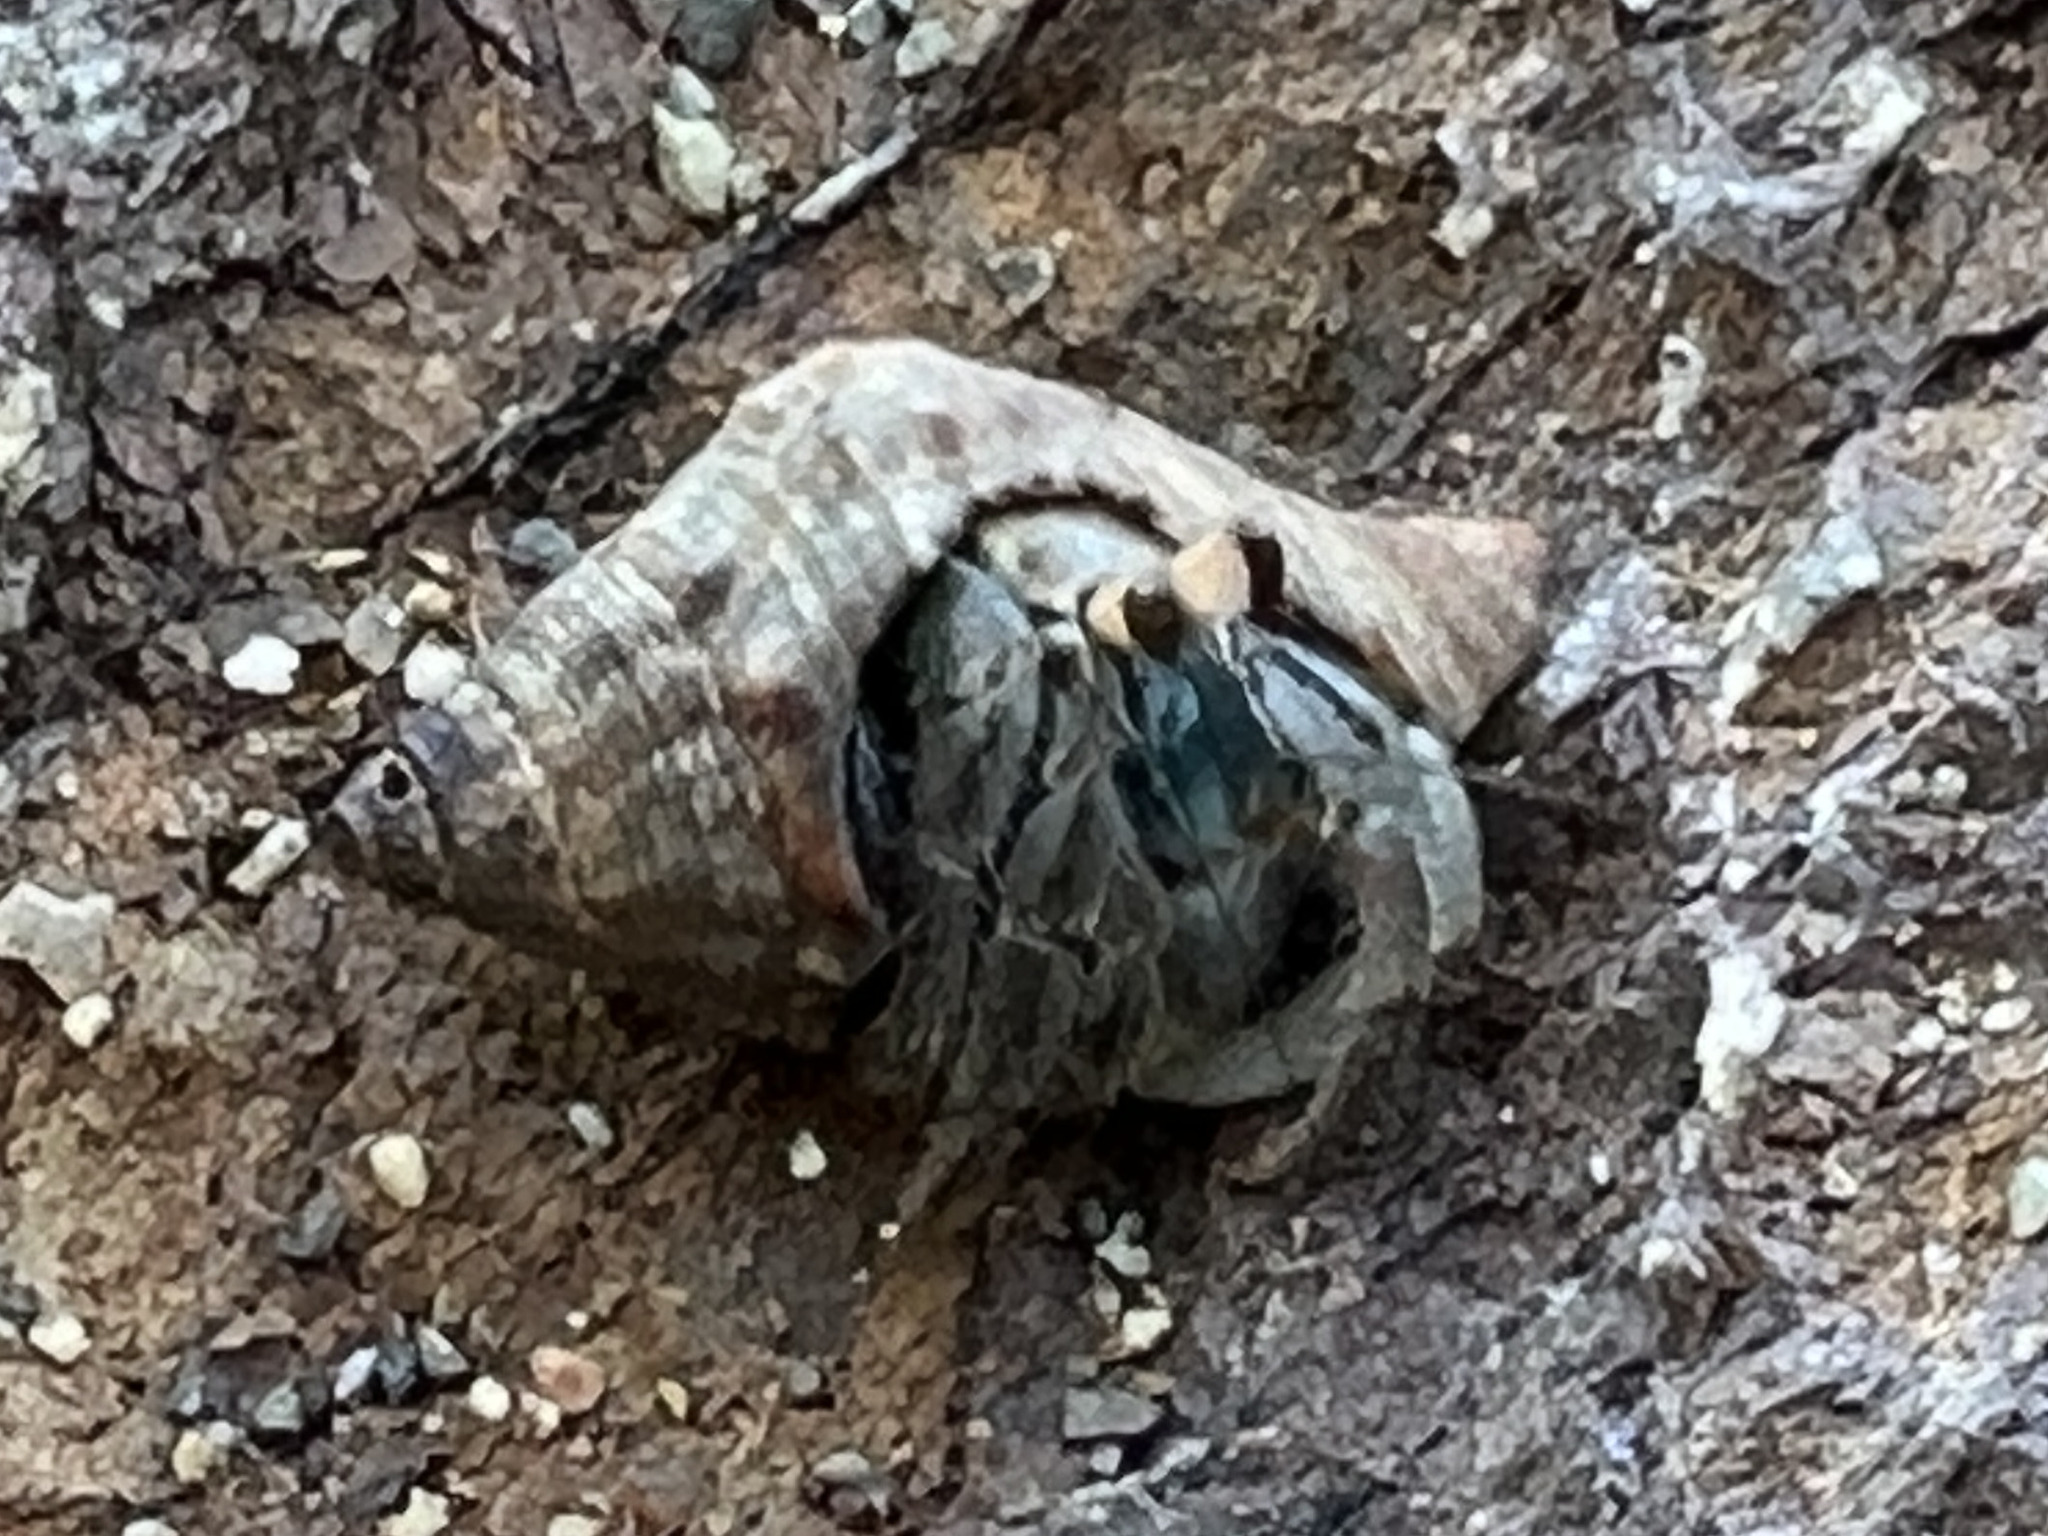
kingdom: Animalia
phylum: Arthropoda
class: Malacostraca
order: Decapoda
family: Coenobitidae
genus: Coenobita
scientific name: Coenobita compressus
